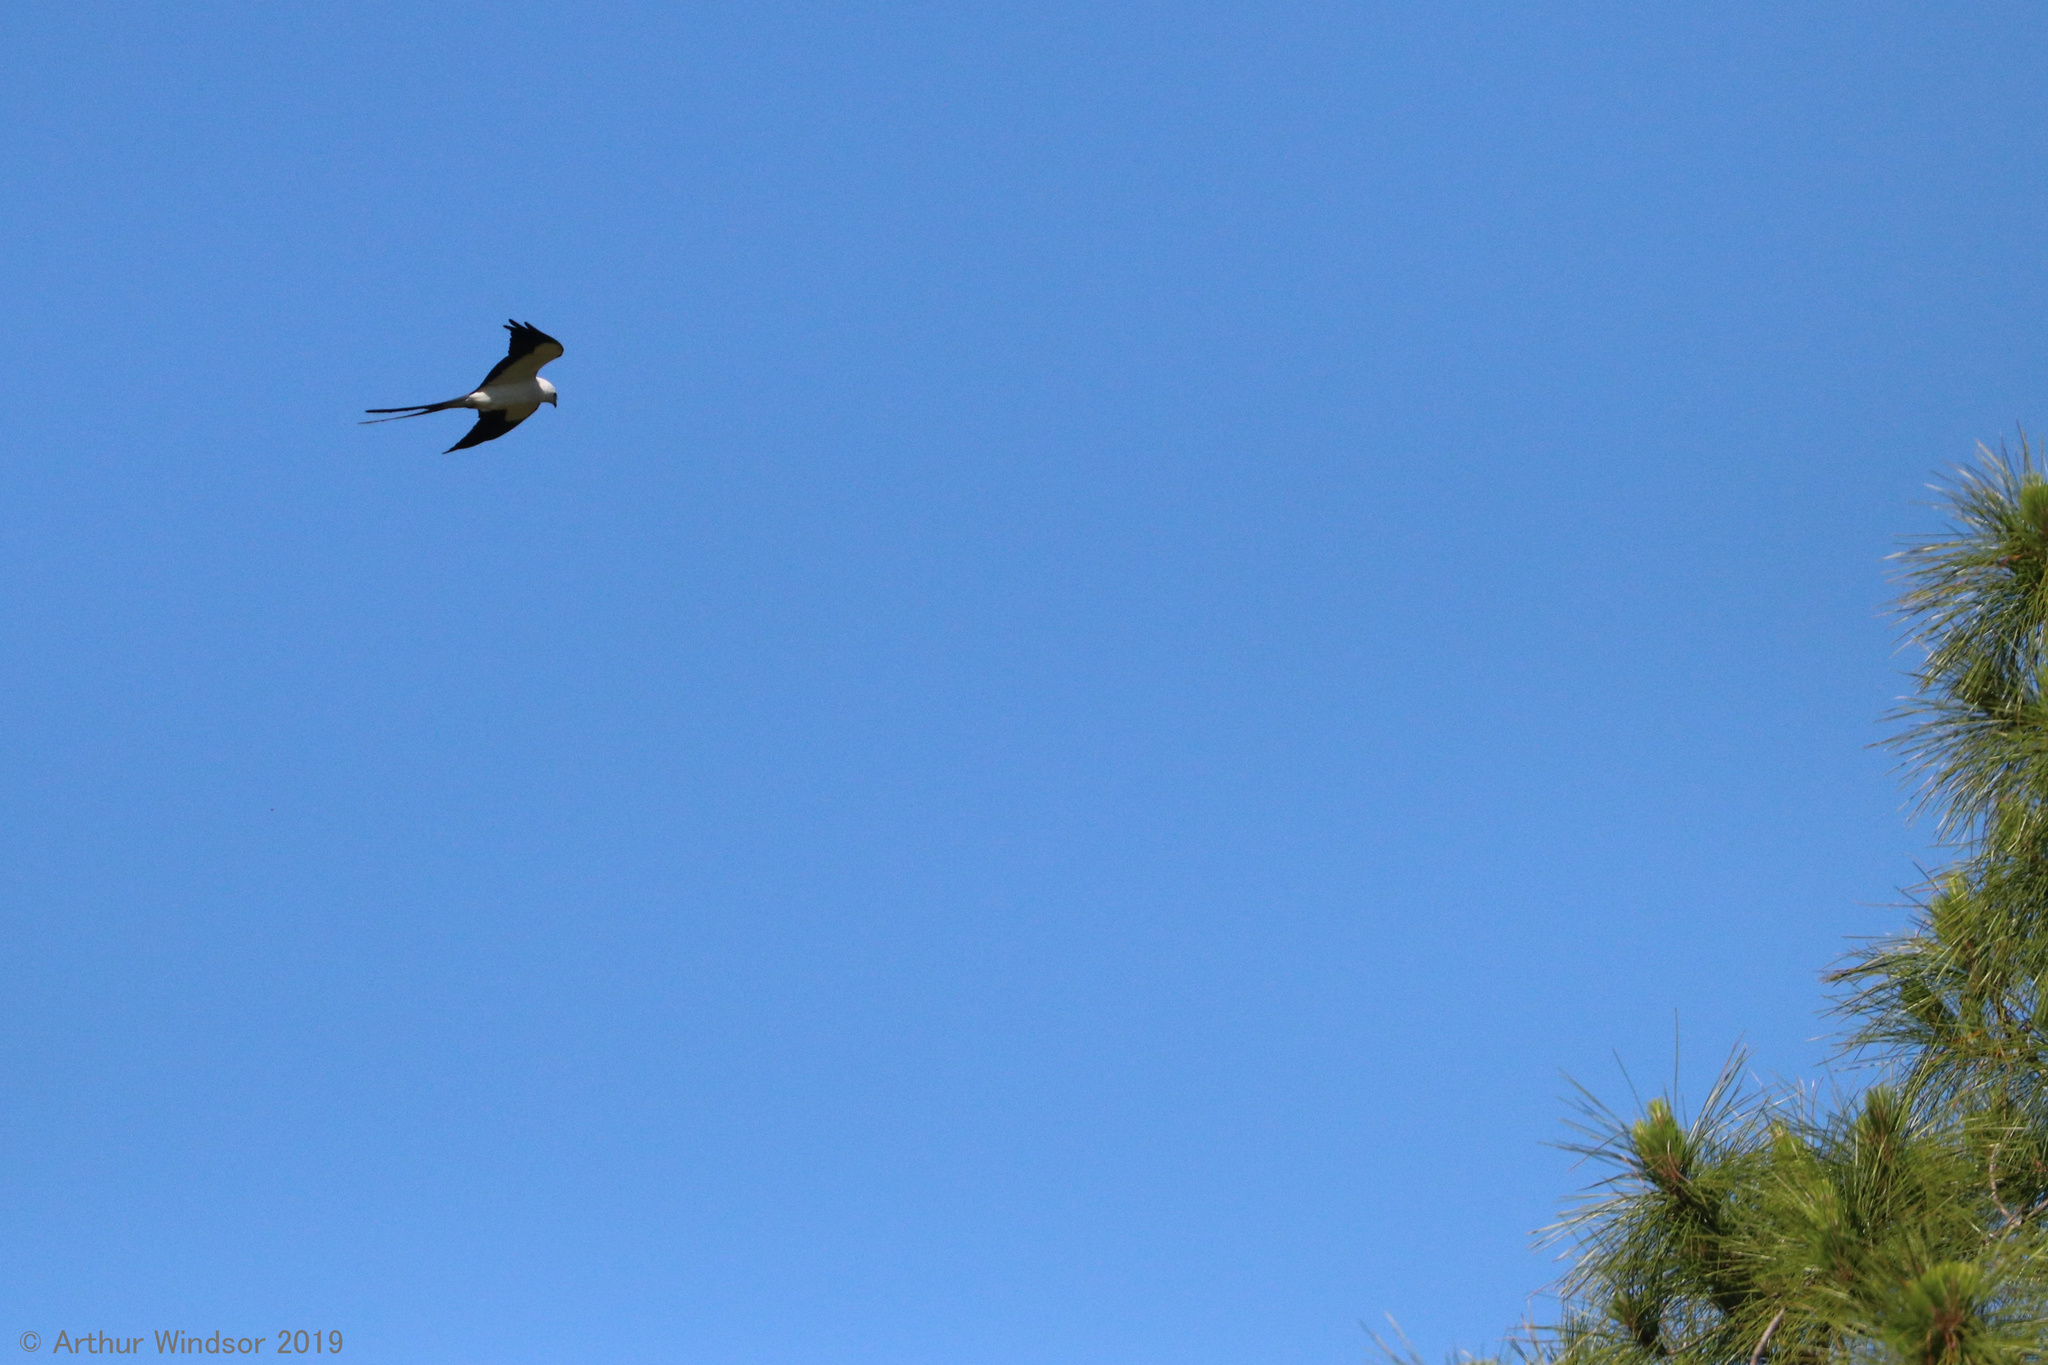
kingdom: Animalia
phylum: Chordata
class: Aves
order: Accipitriformes
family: Accipitridae
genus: Elanoides
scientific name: Elanoides forficatus
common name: Swallow-tailed kite
